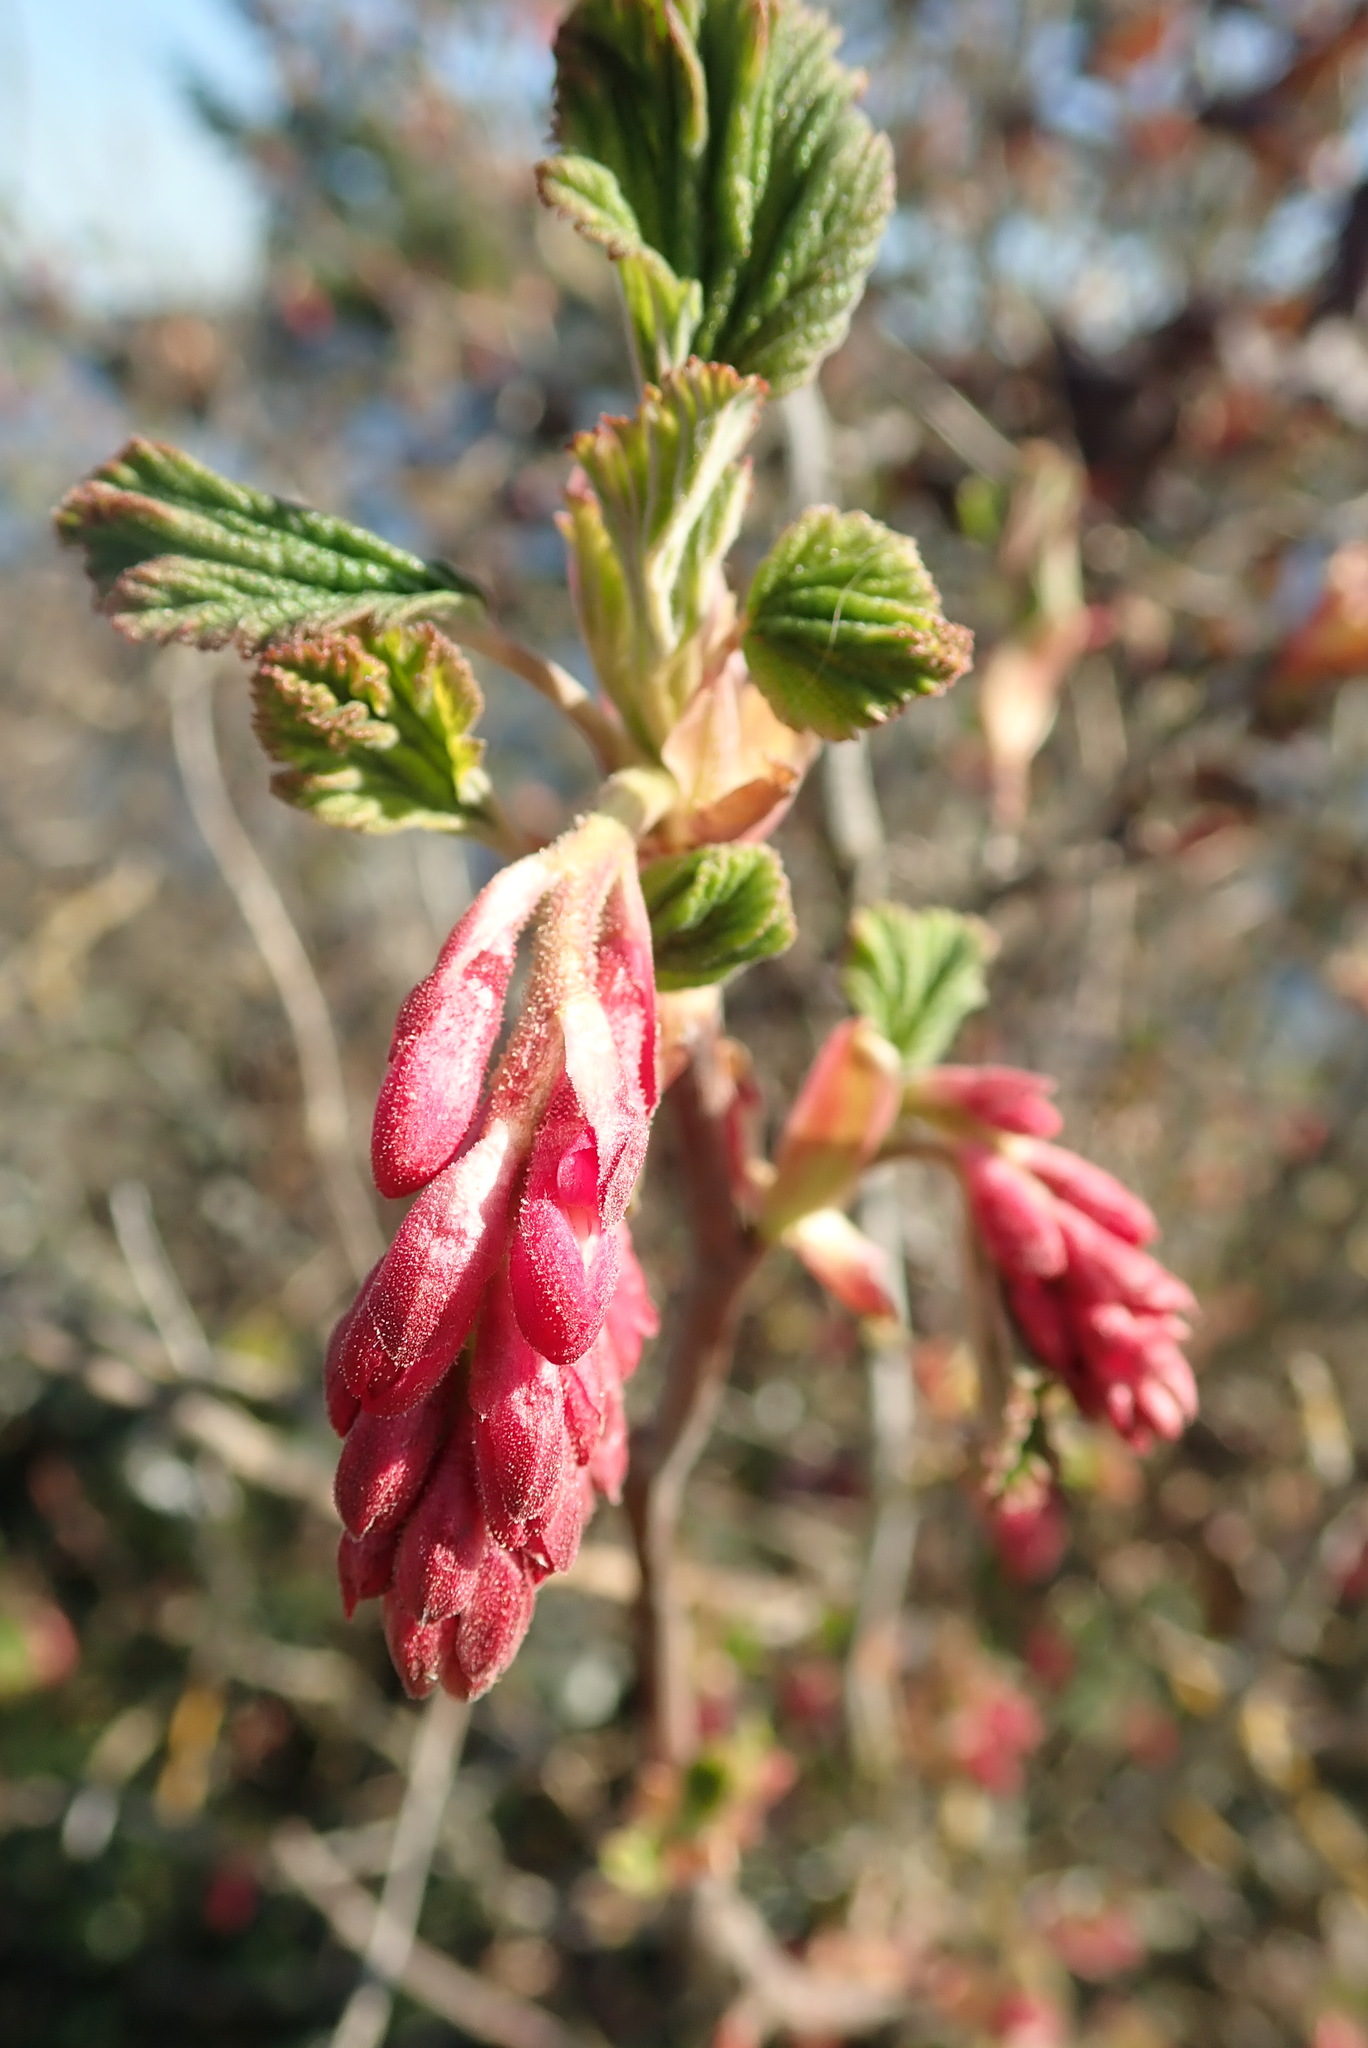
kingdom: Plantae
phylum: Tracheophyta
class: Magnoliopsida
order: Saxifragales
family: Grossulariaceae
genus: Ribes
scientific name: Ribes sanguineum
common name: Flowering currant
